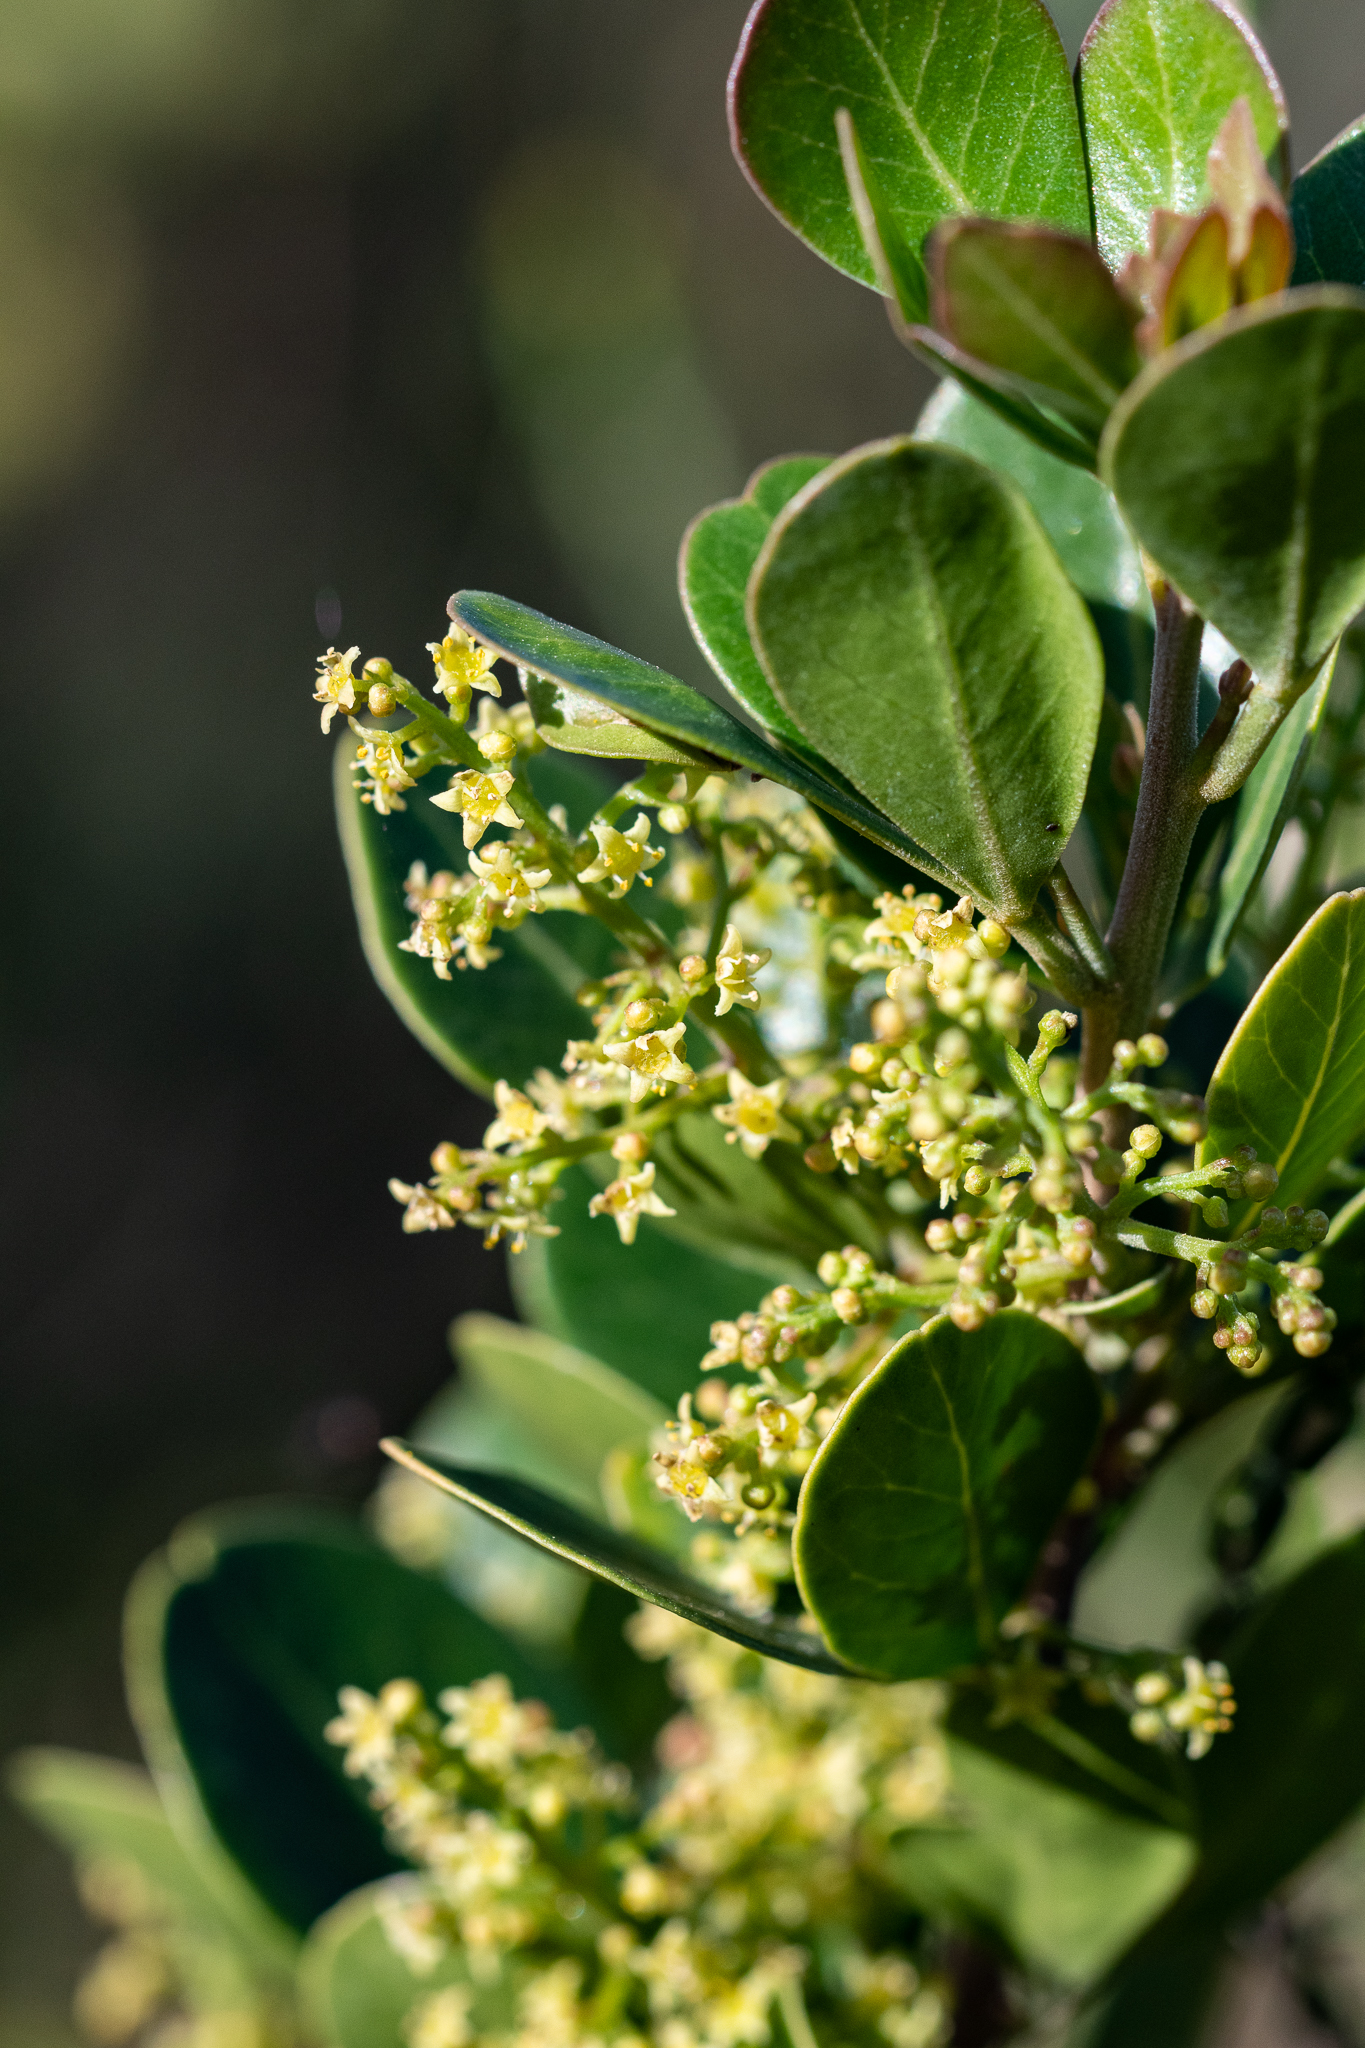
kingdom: Plantae
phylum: Tracheophyta
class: Magnoliopsida
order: Sapindales
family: Anacardiaceae
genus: Searsia
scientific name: Searsia lucida
